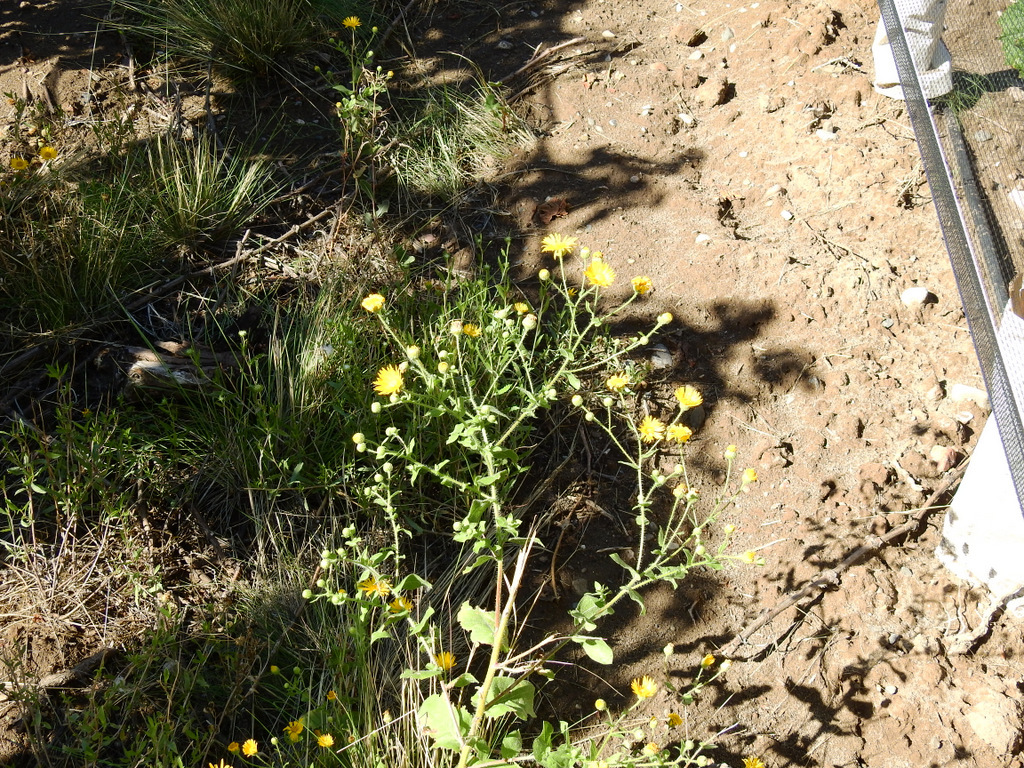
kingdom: Plantae
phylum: Tracheophyta
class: Magnoliopsida
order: Asterales
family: Asteraceae
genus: Heterotheca
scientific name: Heterotheca subaxillaris
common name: Camphorweed
